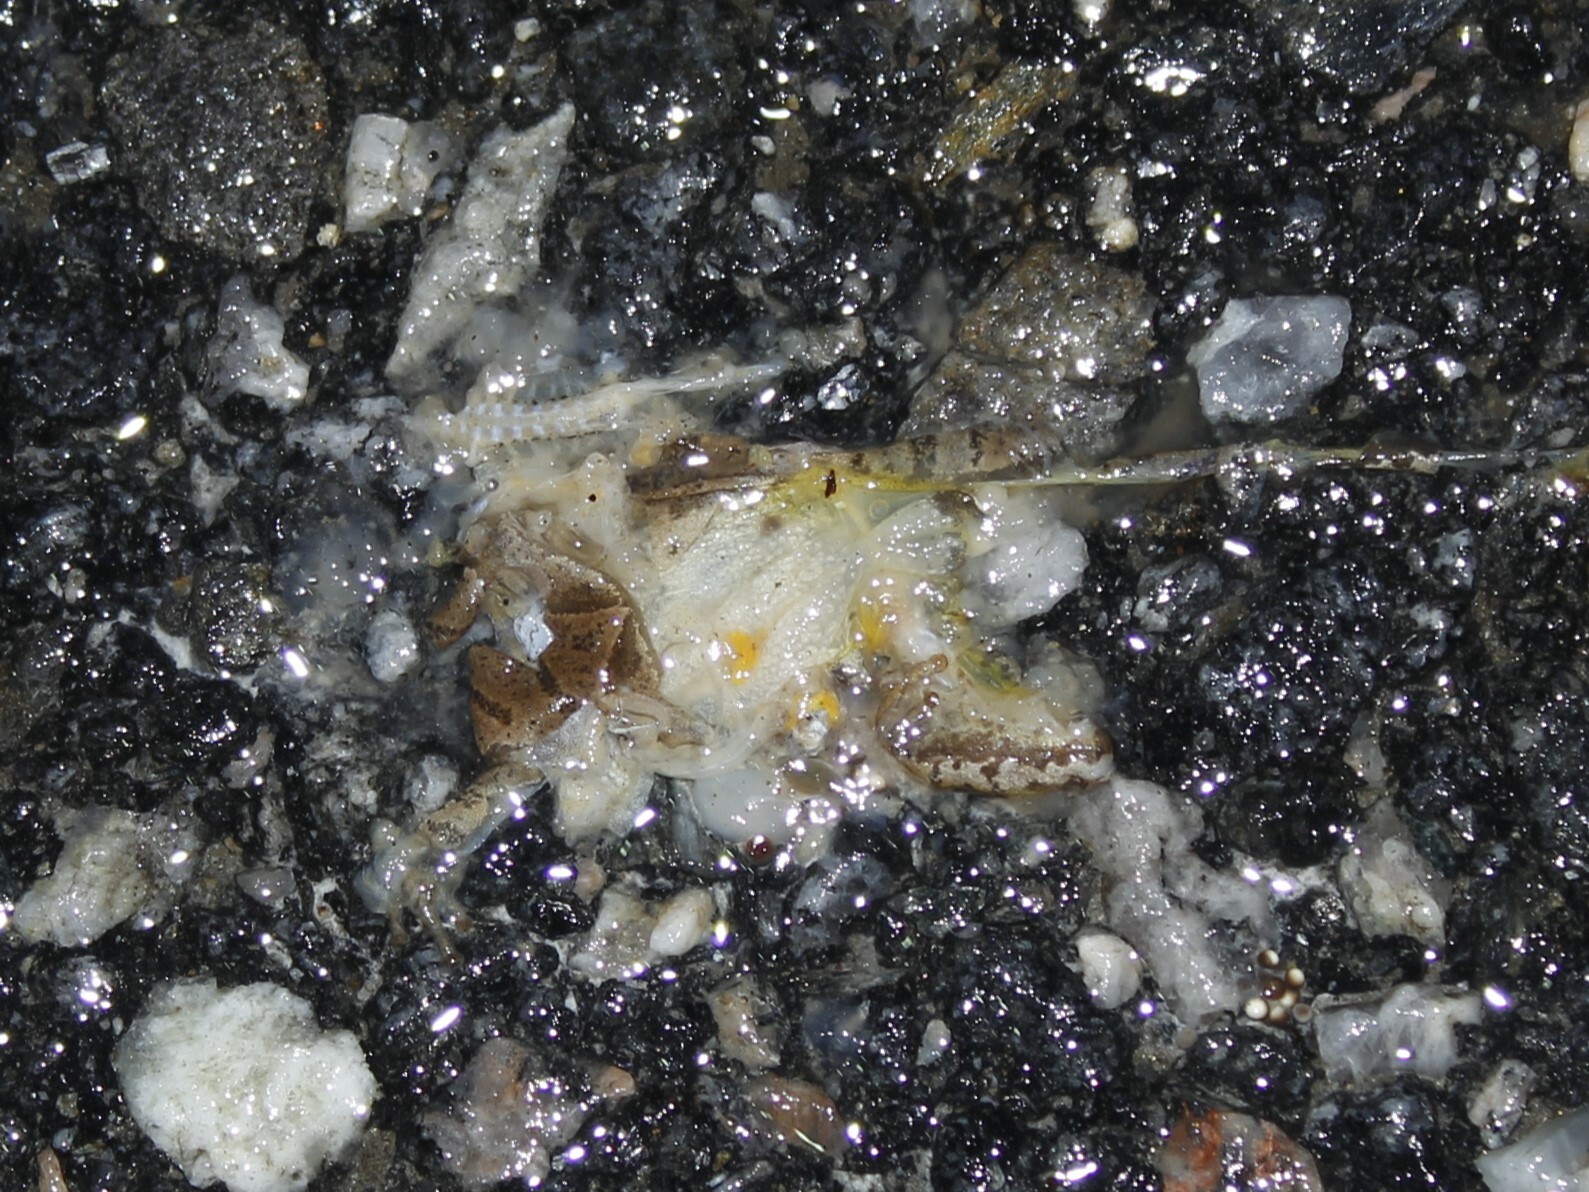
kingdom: Animalia
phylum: Chordata
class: Amphibia
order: Anura
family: Hylidae
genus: Pseudacris
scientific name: Pseudacris crucifer
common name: Spring peeper
